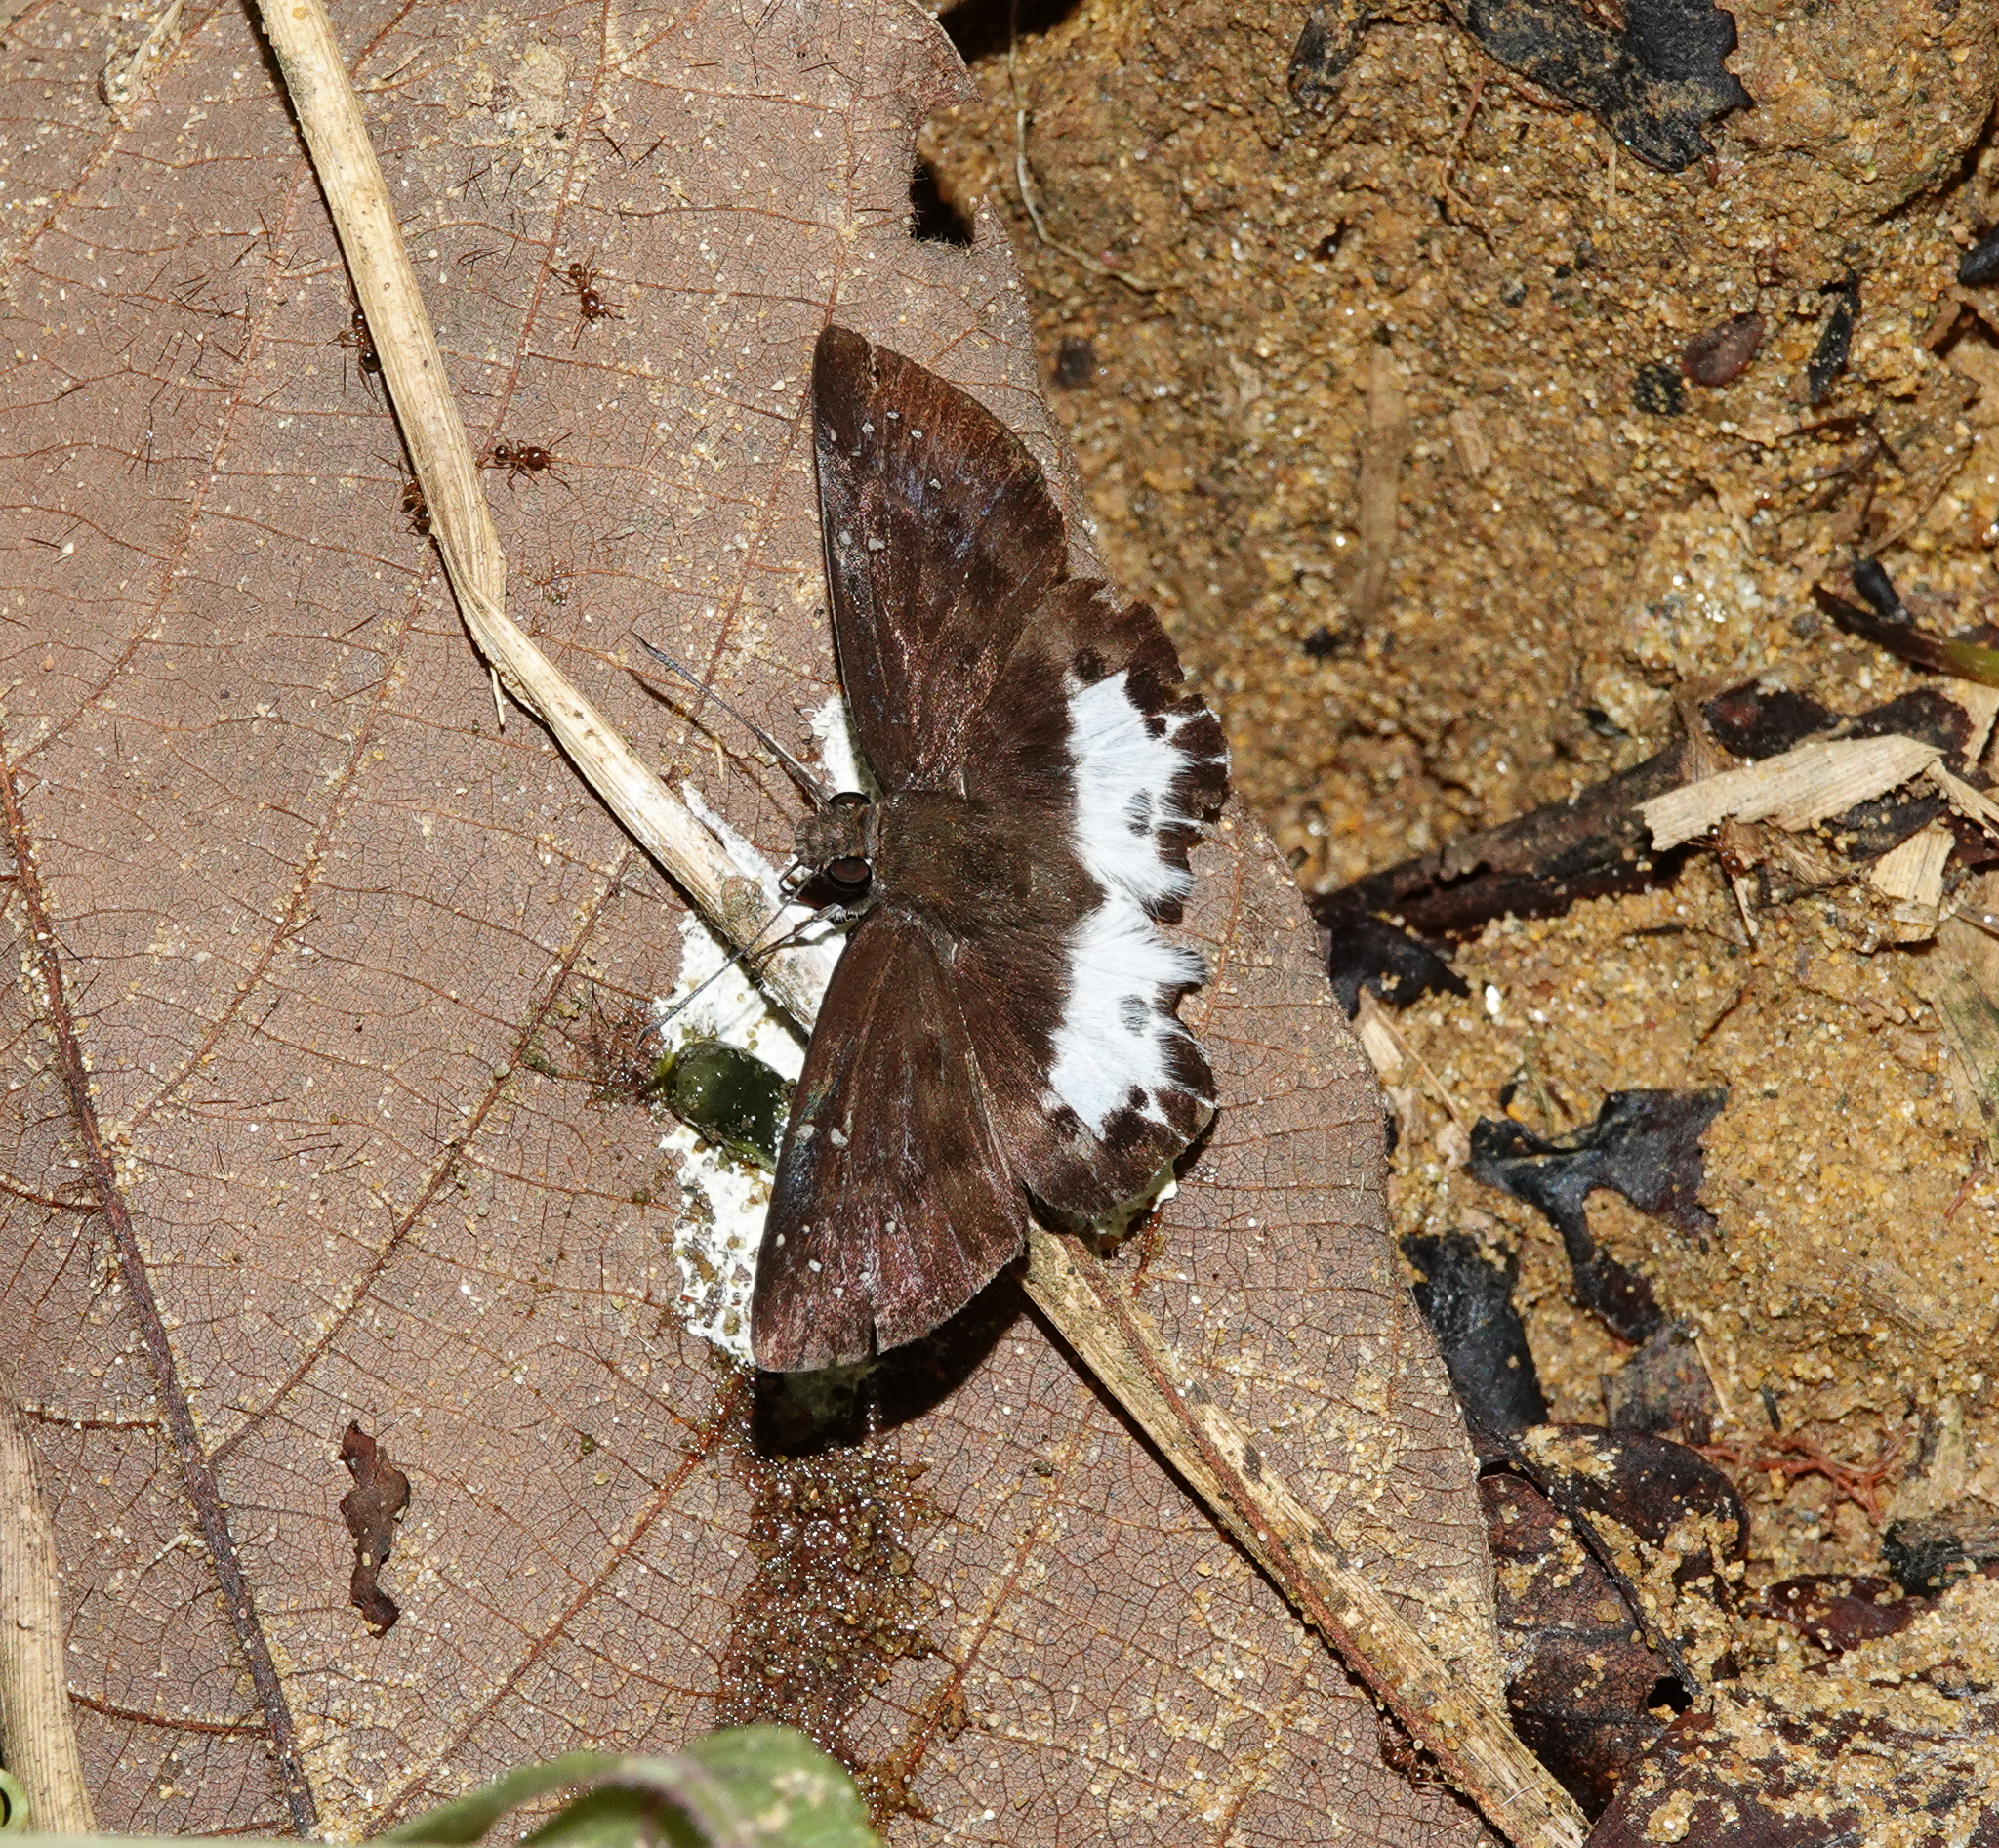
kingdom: Animalia
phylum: Arthropoda
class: Insecta
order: Lepidoptera
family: Hesperiidae
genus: Tagiades
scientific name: Tagiades litigiosa
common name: Water snow flat
